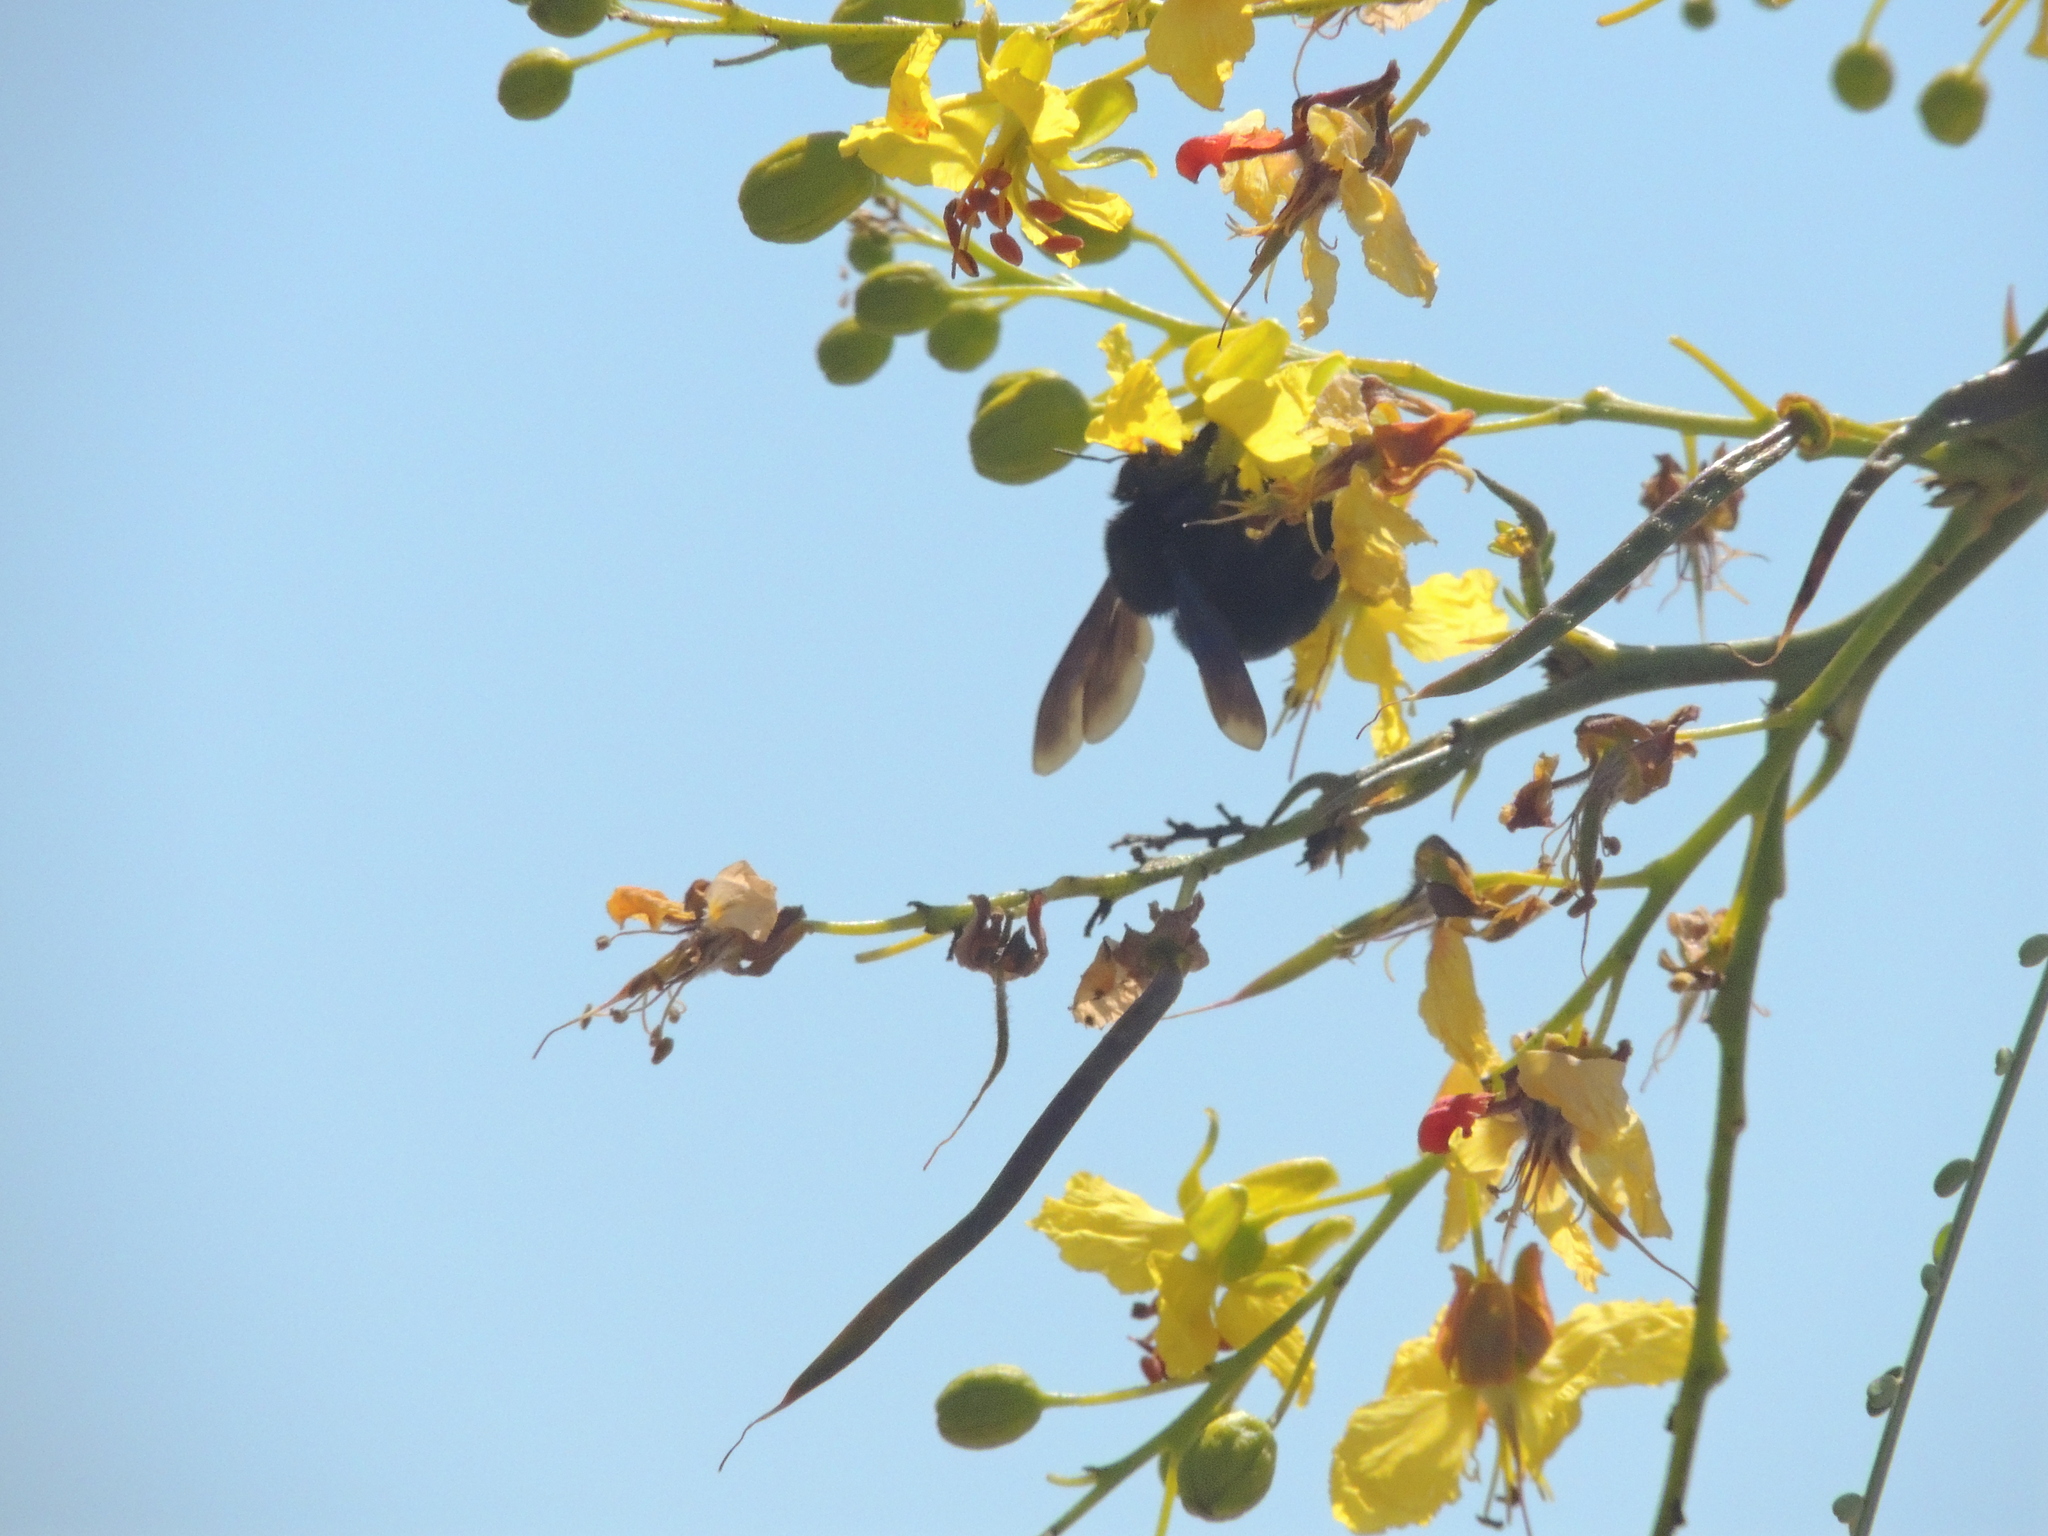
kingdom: Animalia
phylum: Arthropoda
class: Insecta
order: Hymenoptera
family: Apidae
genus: Xylocopa
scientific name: Xylocopa darwini
